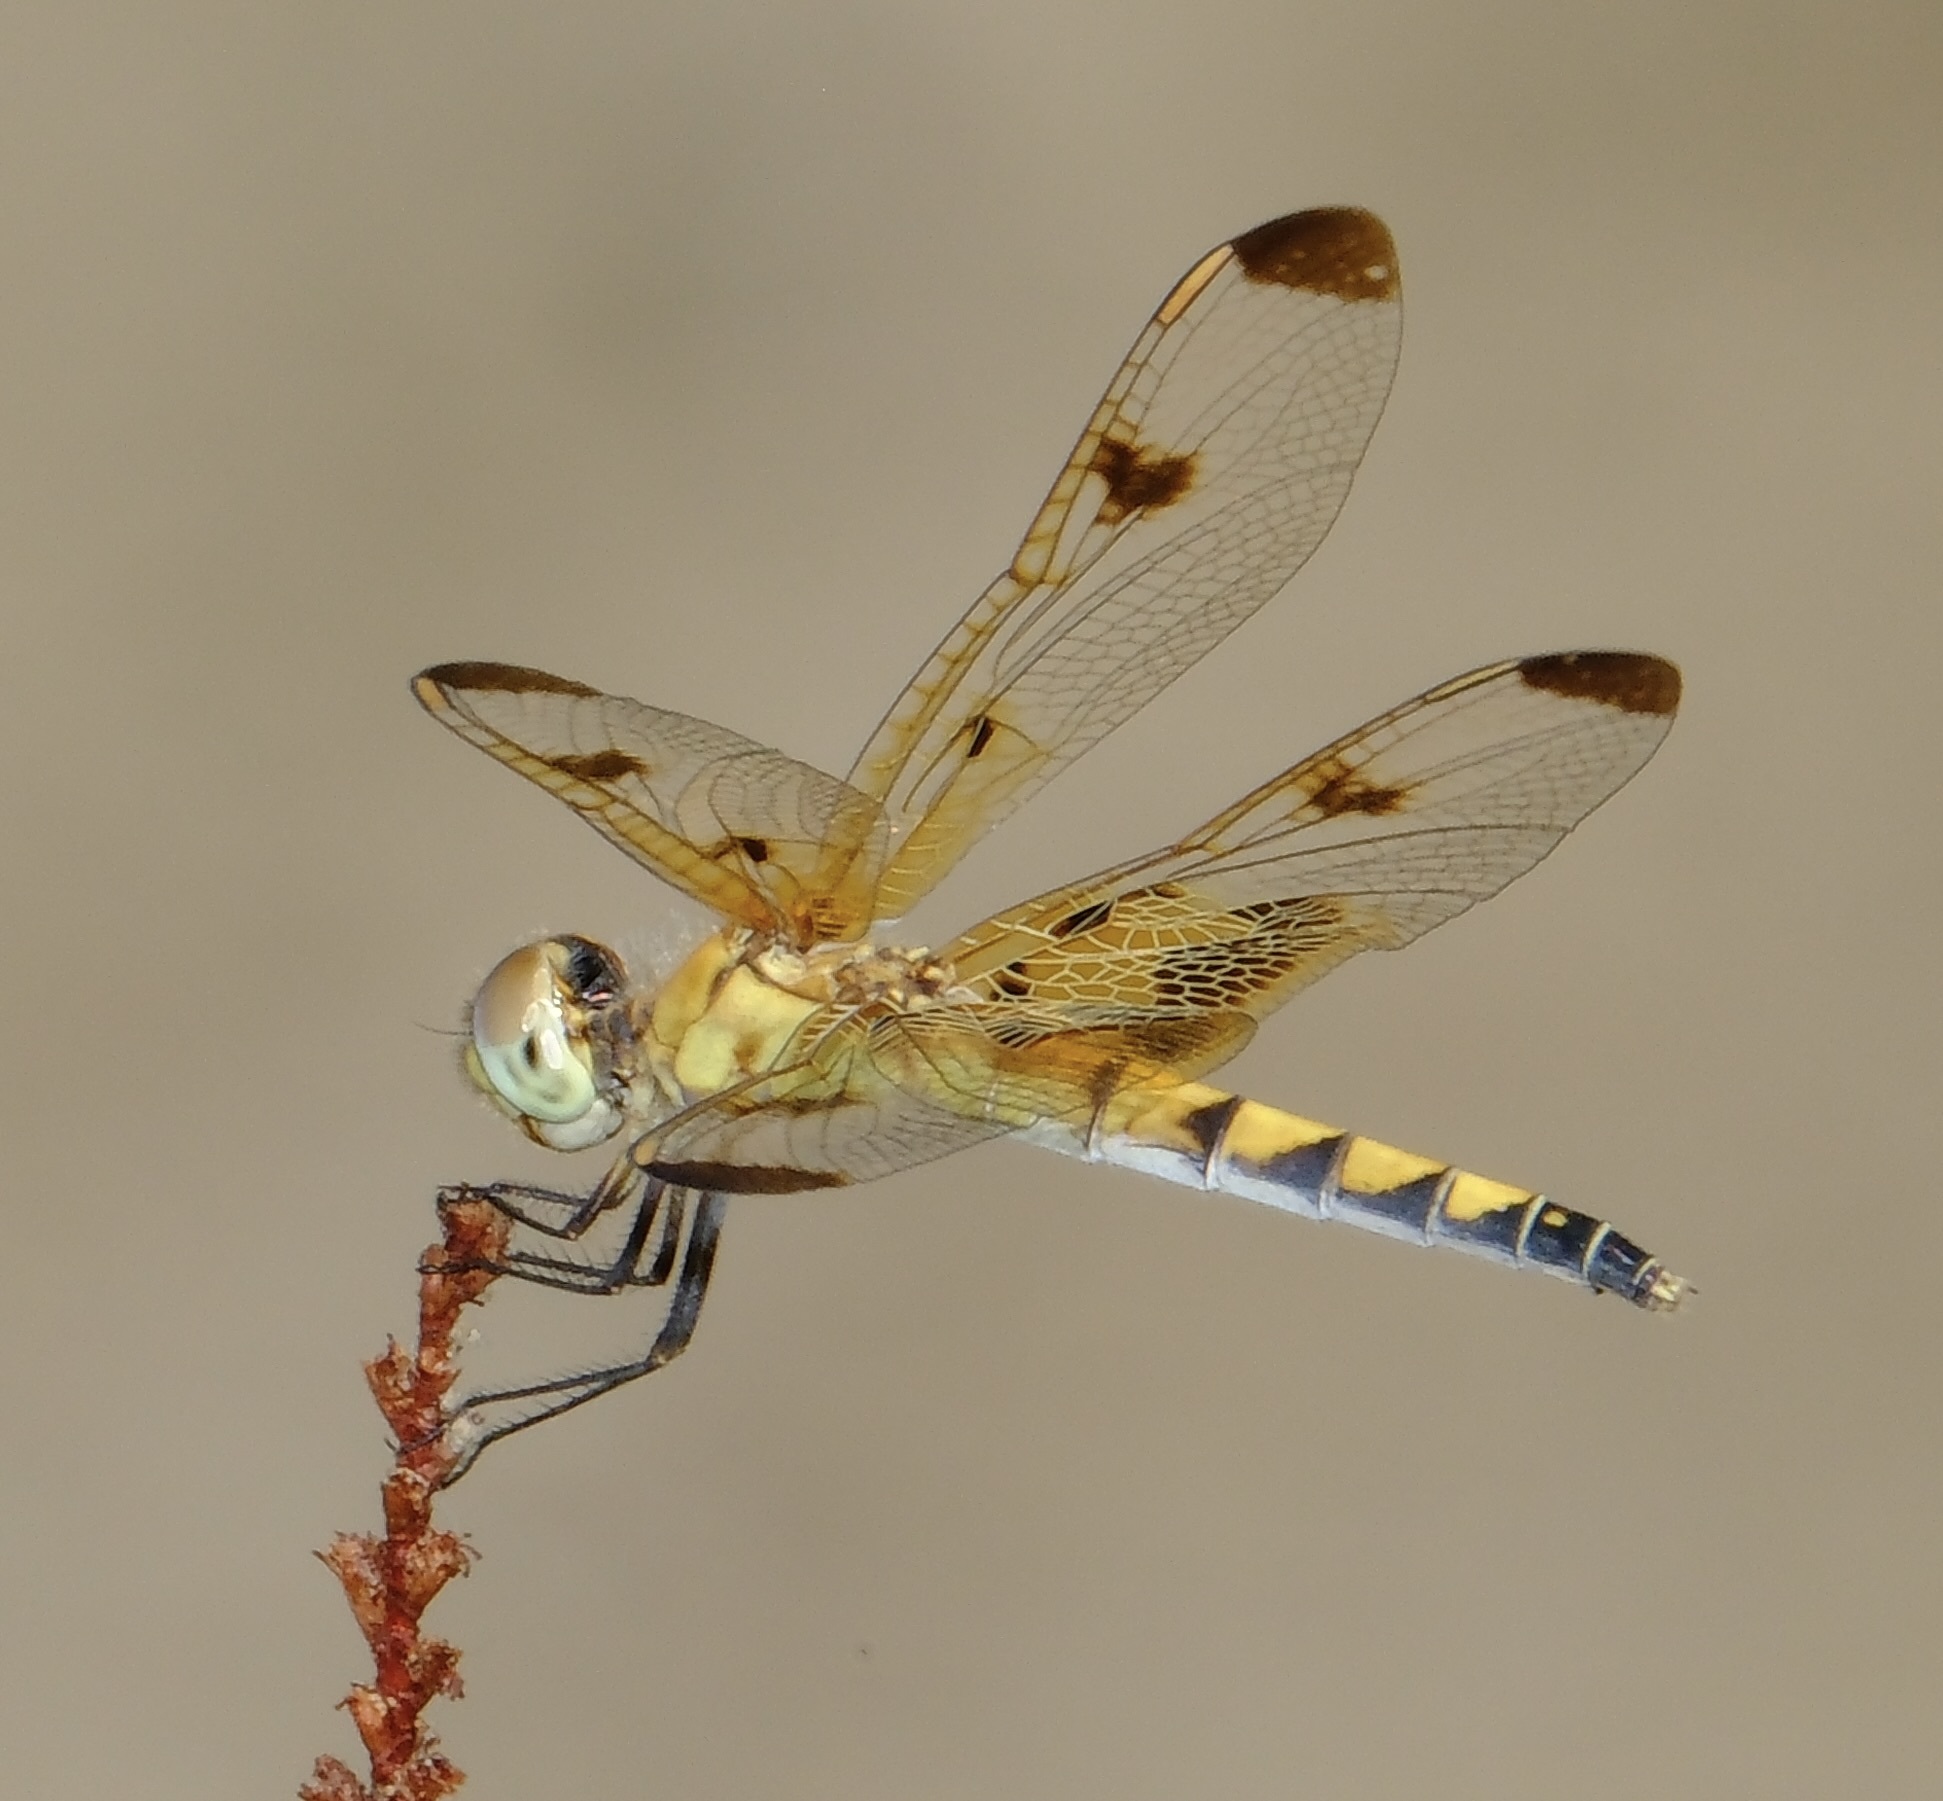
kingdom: Animalia
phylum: Arthropoda
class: Insecta
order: Odonata
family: Libellulidae
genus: Celithemis
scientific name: Celithemis elisa
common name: Calico pennant
